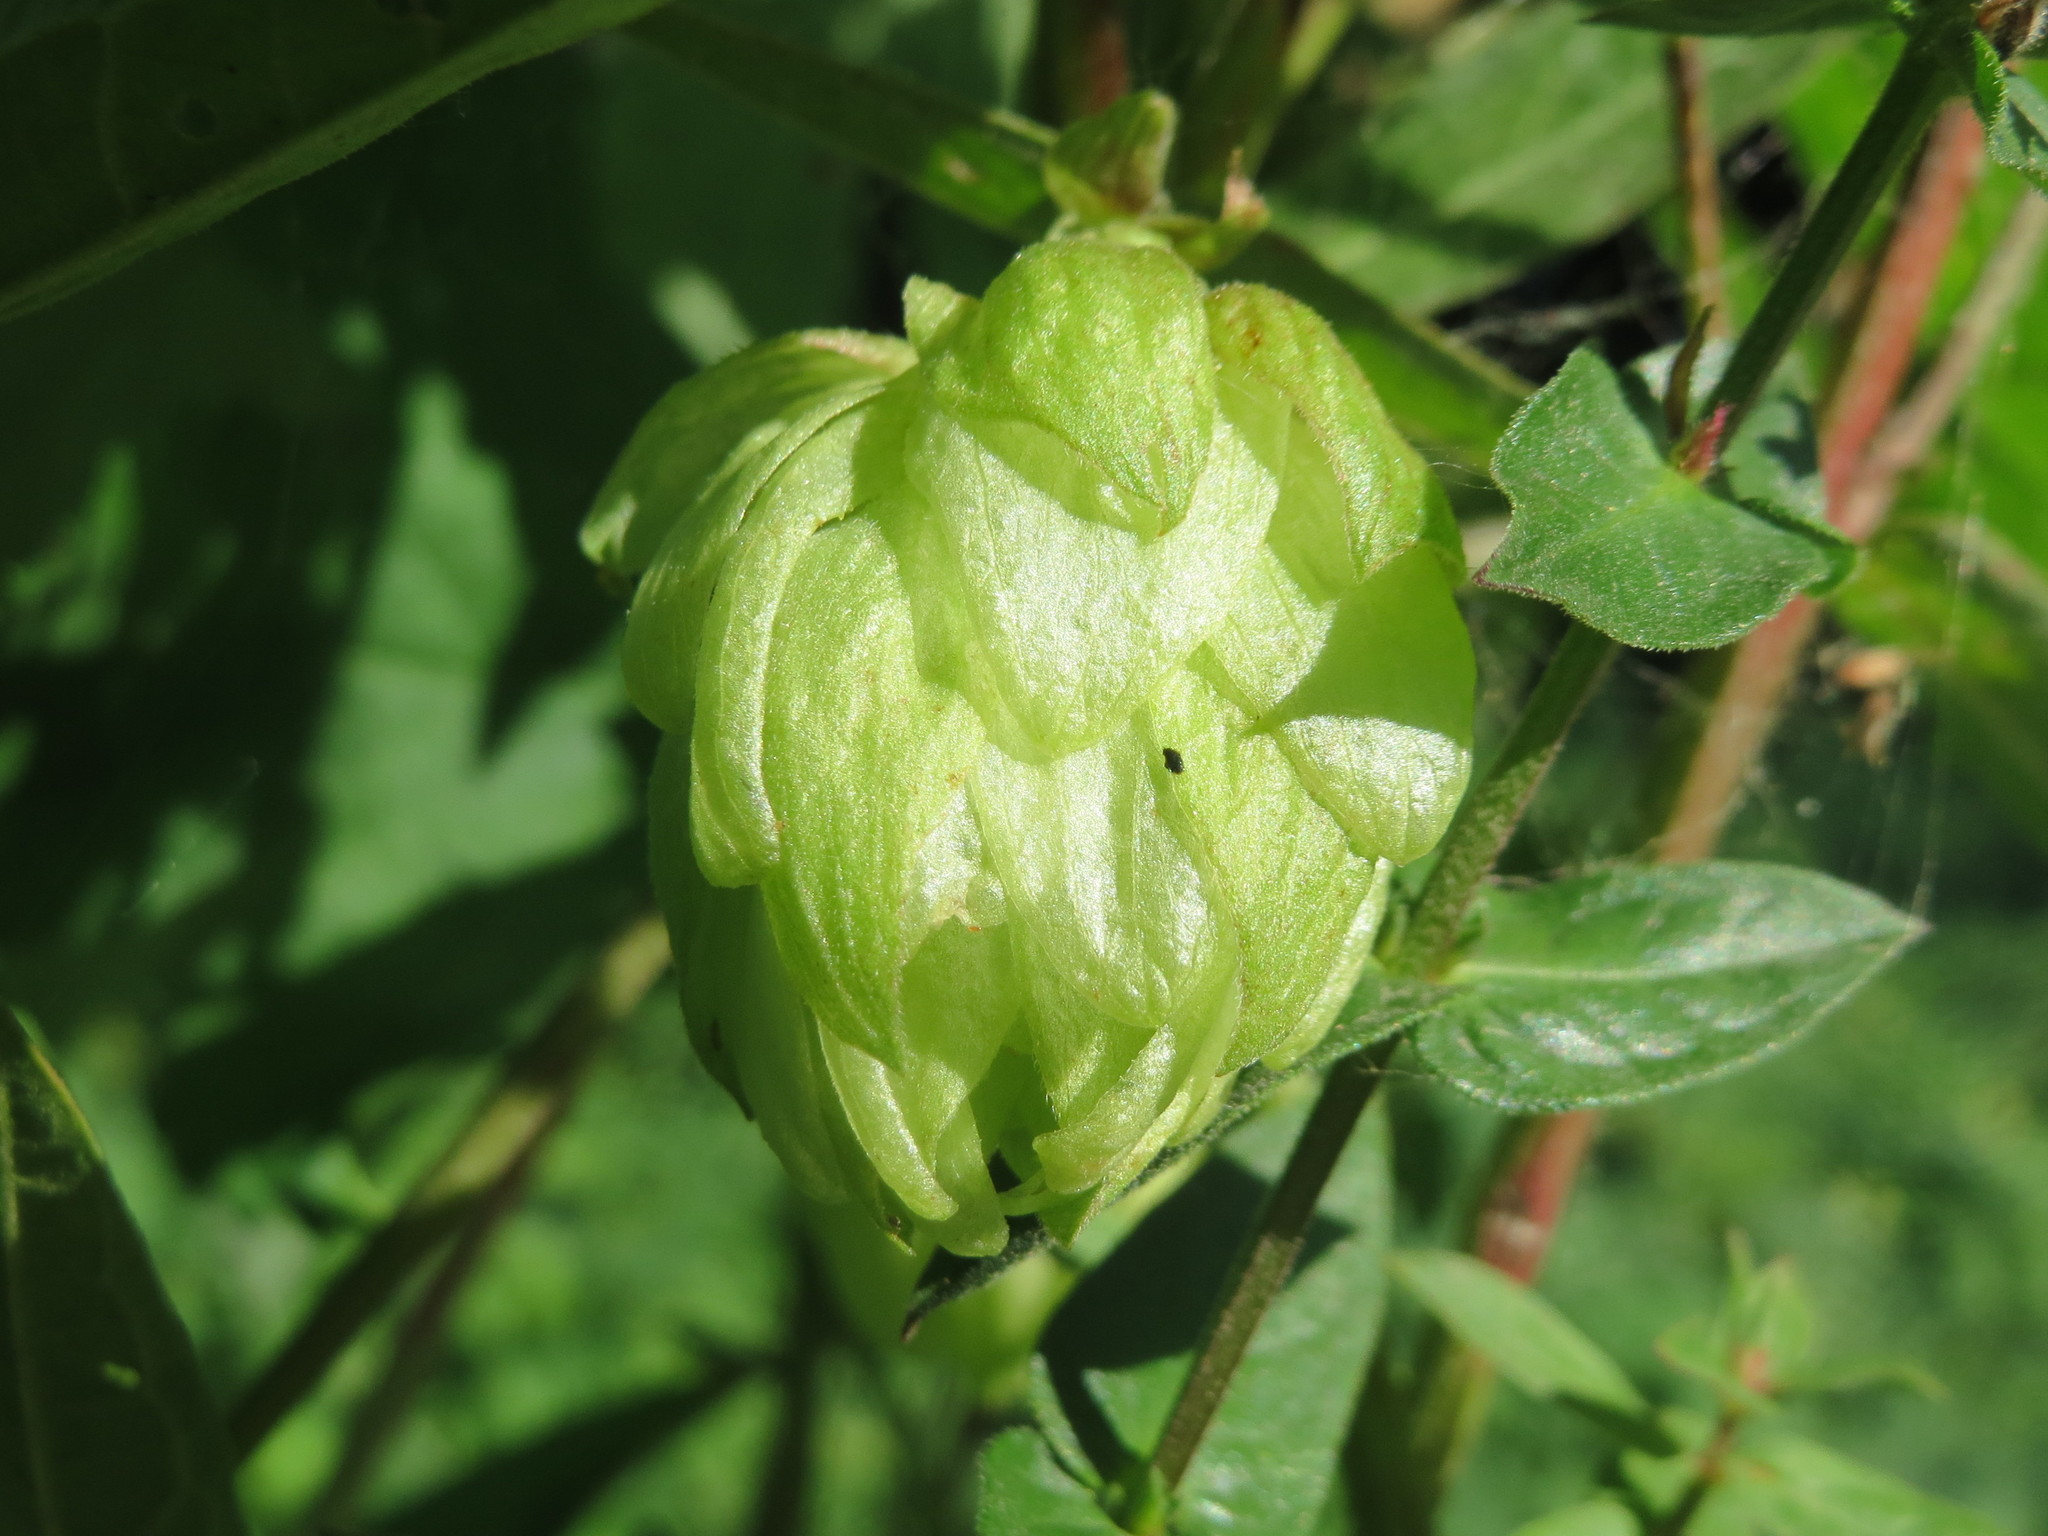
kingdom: Plantae
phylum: Tracheophyta
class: Magnoliopsida
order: Rosales
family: Cannabaceae
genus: Humulus
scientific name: Humulus lupulus
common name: Hop
